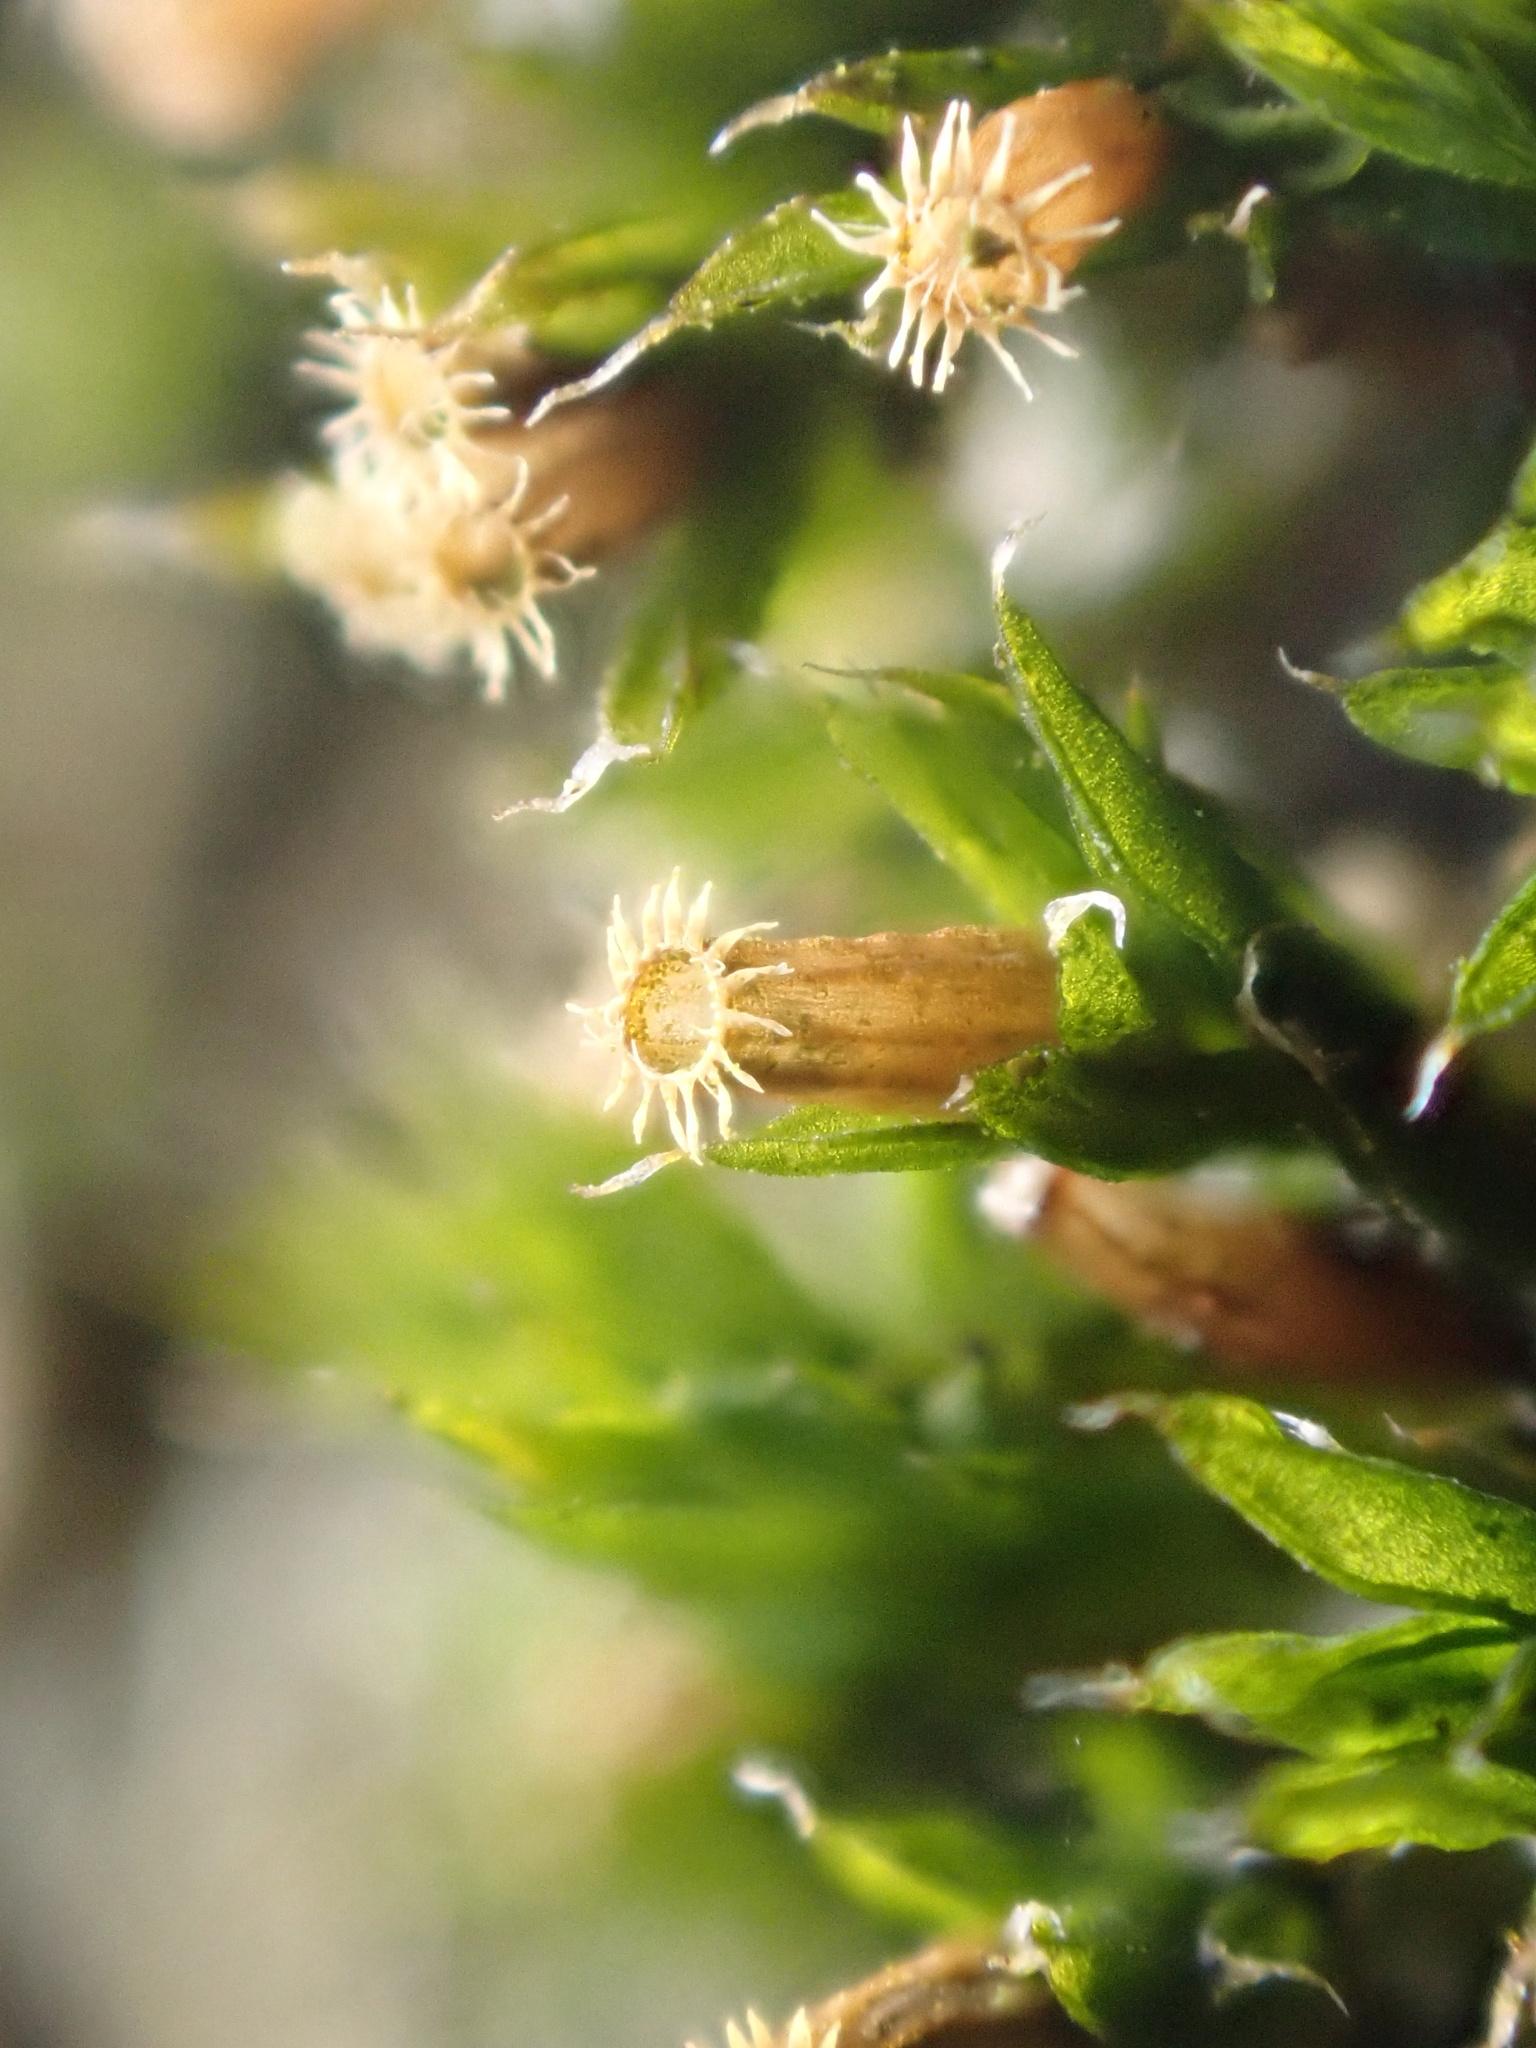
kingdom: Plantae
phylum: Bryophyta
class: Bryopsida
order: Orthotrichales
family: Orthotrichaceae
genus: Orthotrichum
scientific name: Orthotrichum diaphanum
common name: White-tipped bristle-moss
